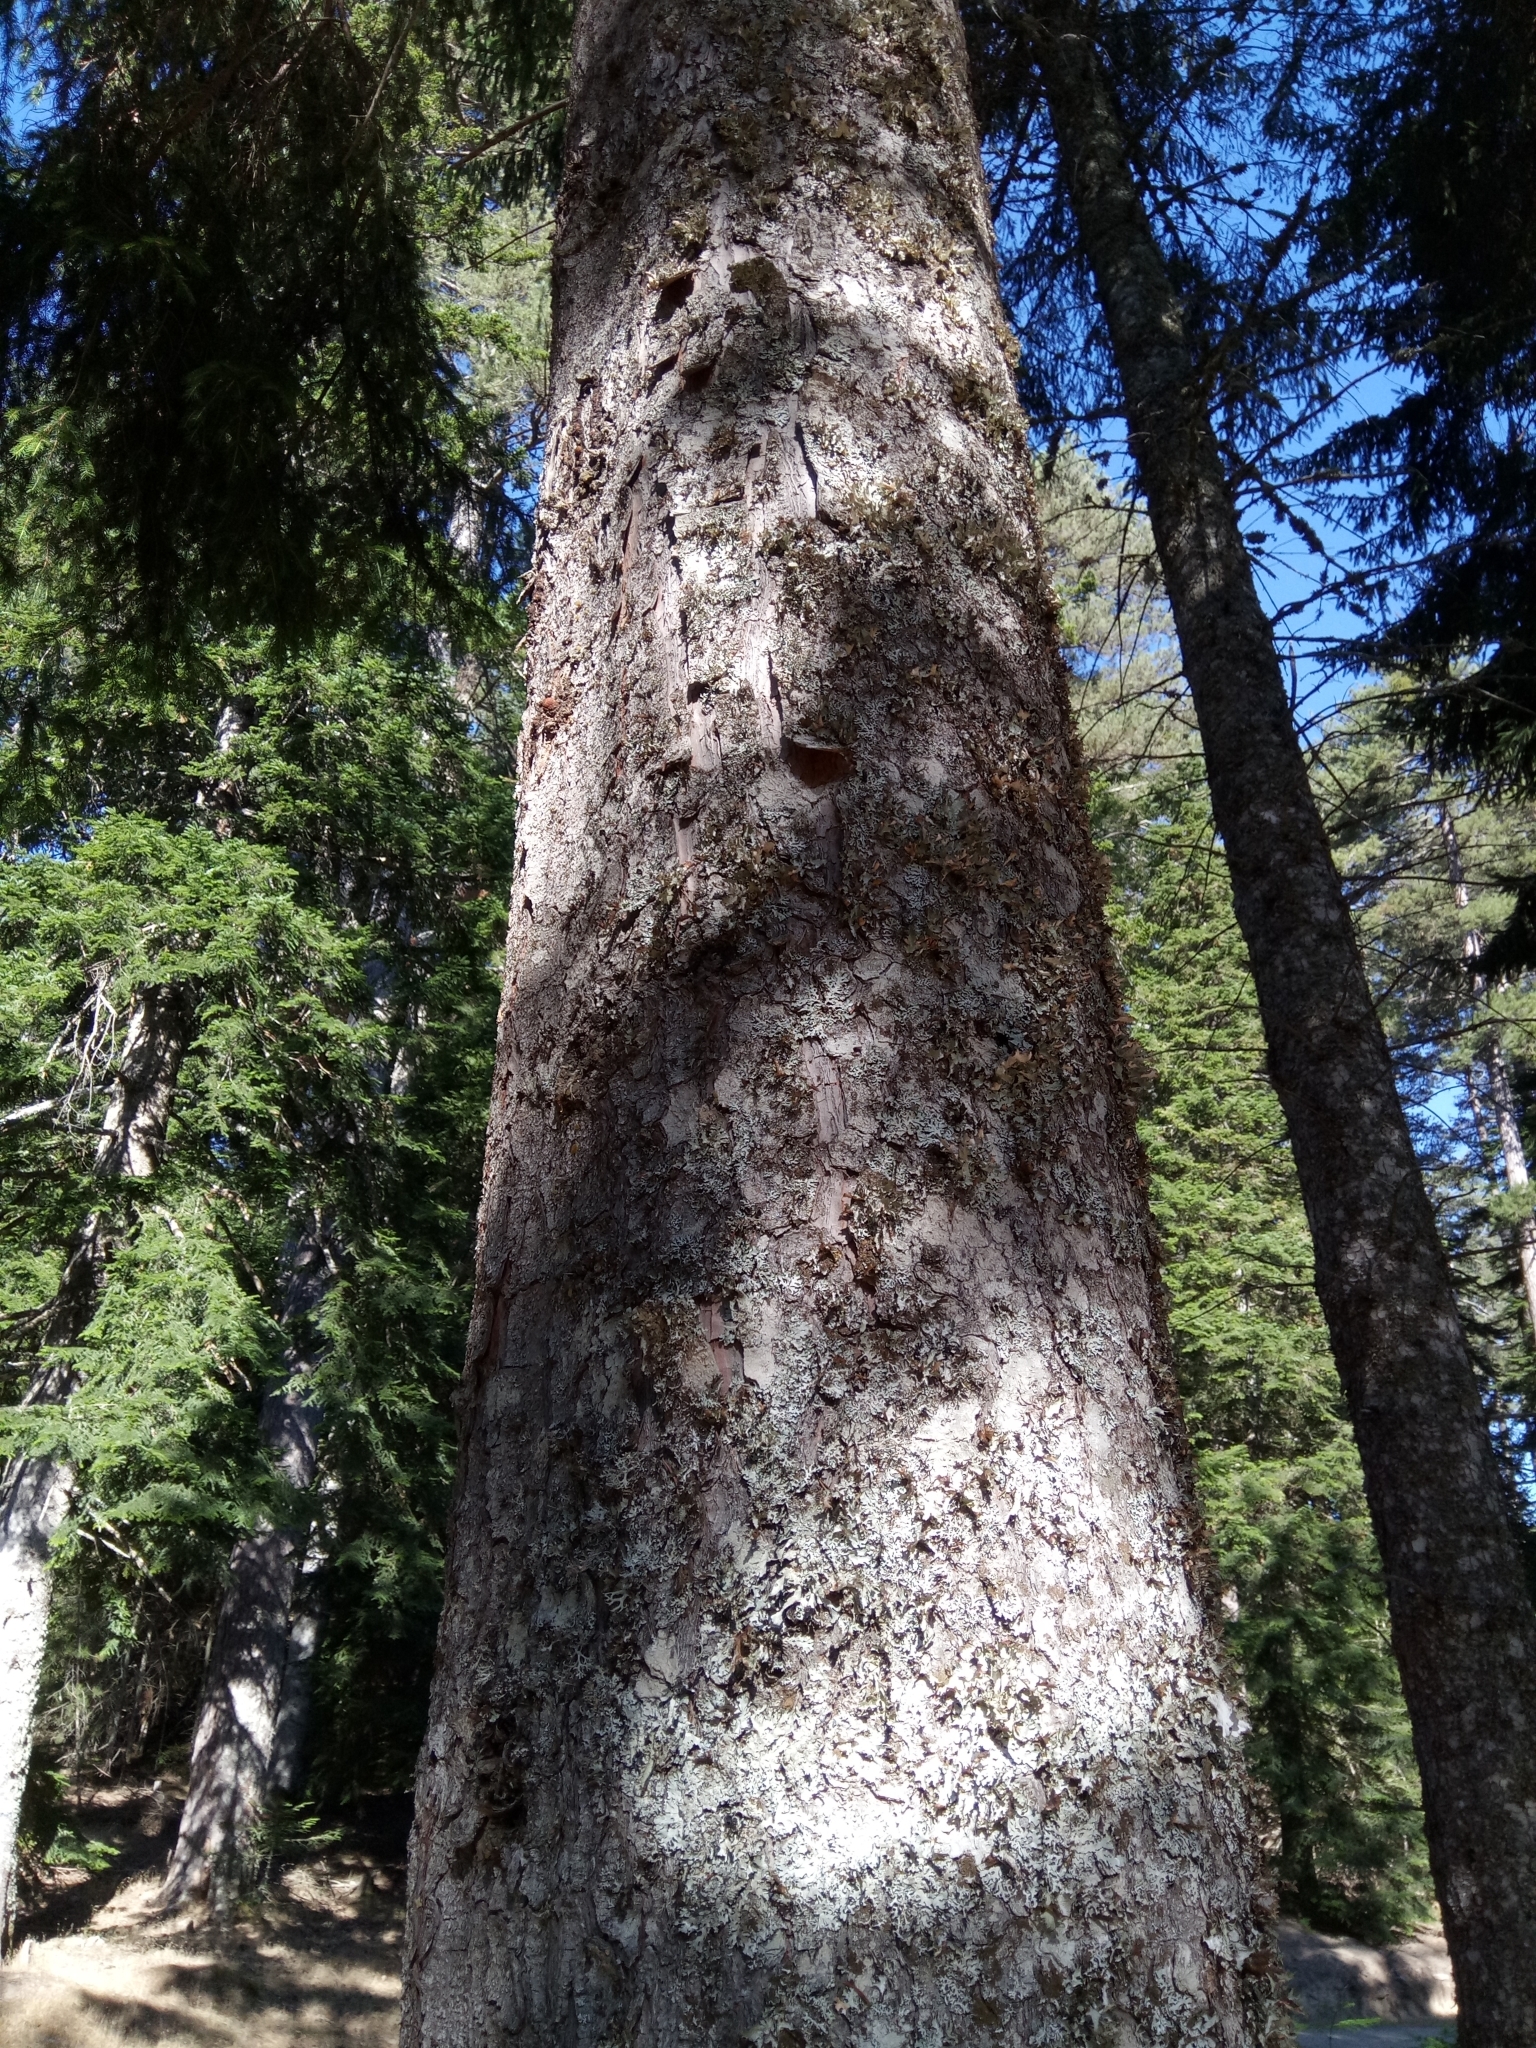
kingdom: Plantae
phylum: Tracheophyta
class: Pinopsida
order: Pinales
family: Pinaceae
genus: Picea
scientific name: Picea abies
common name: Norway spruce
